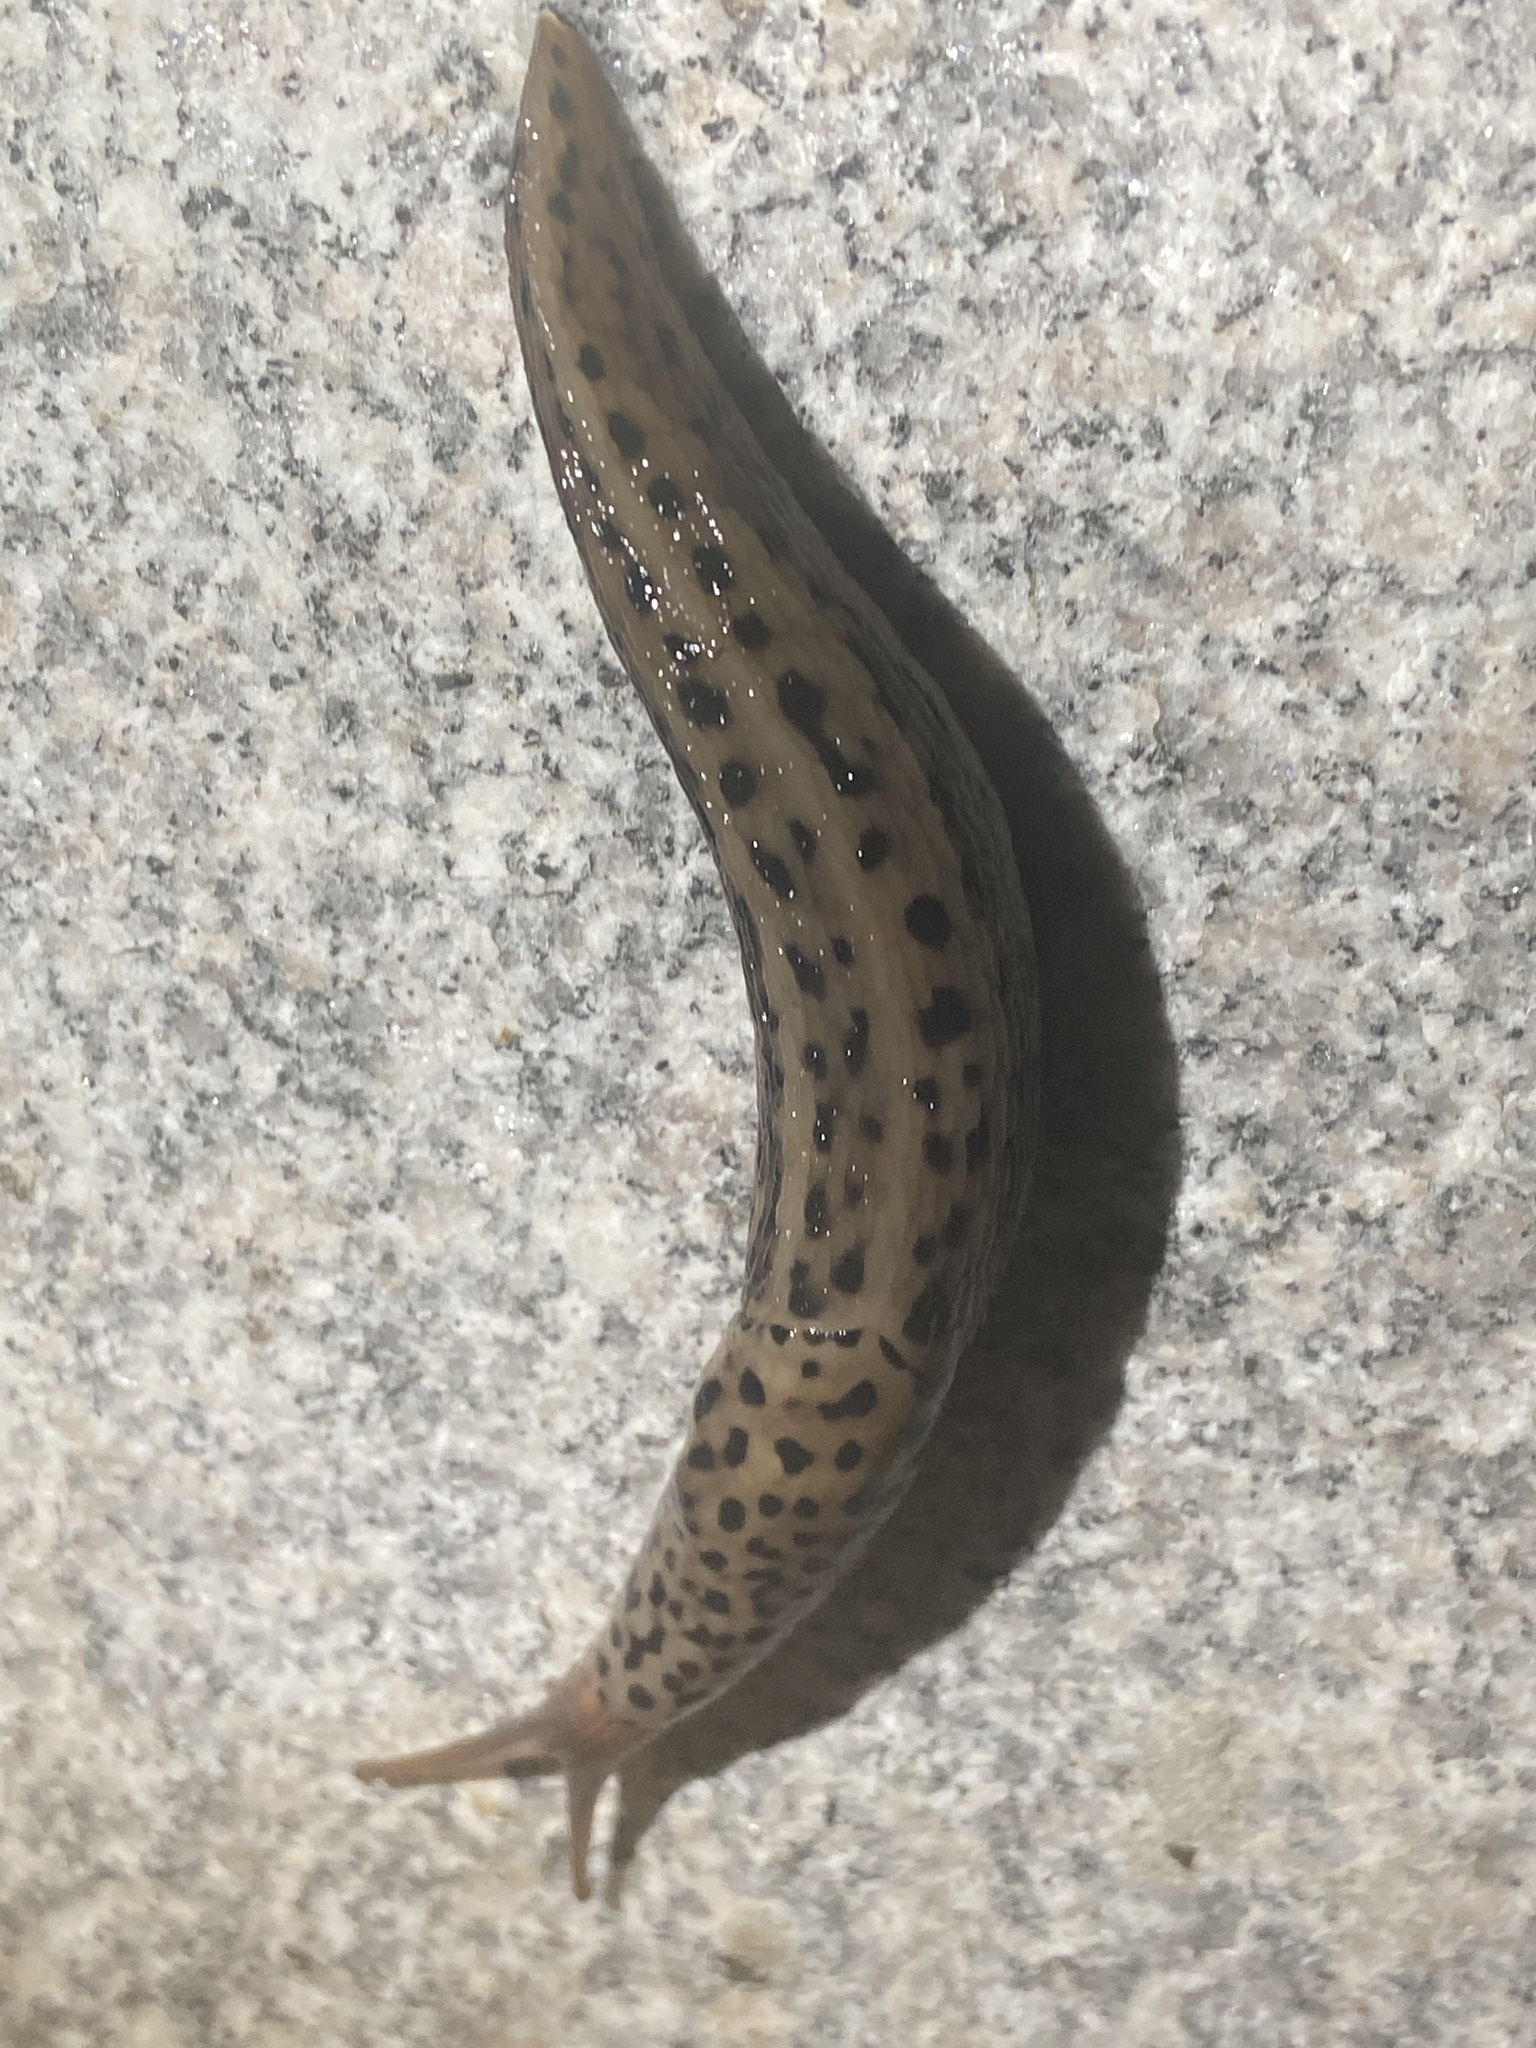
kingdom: Animalia
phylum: Mollusca
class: Gastropoda
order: Stylommatophora
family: Limacidae
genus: Limax
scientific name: Limax maximus
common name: Great grey slug
